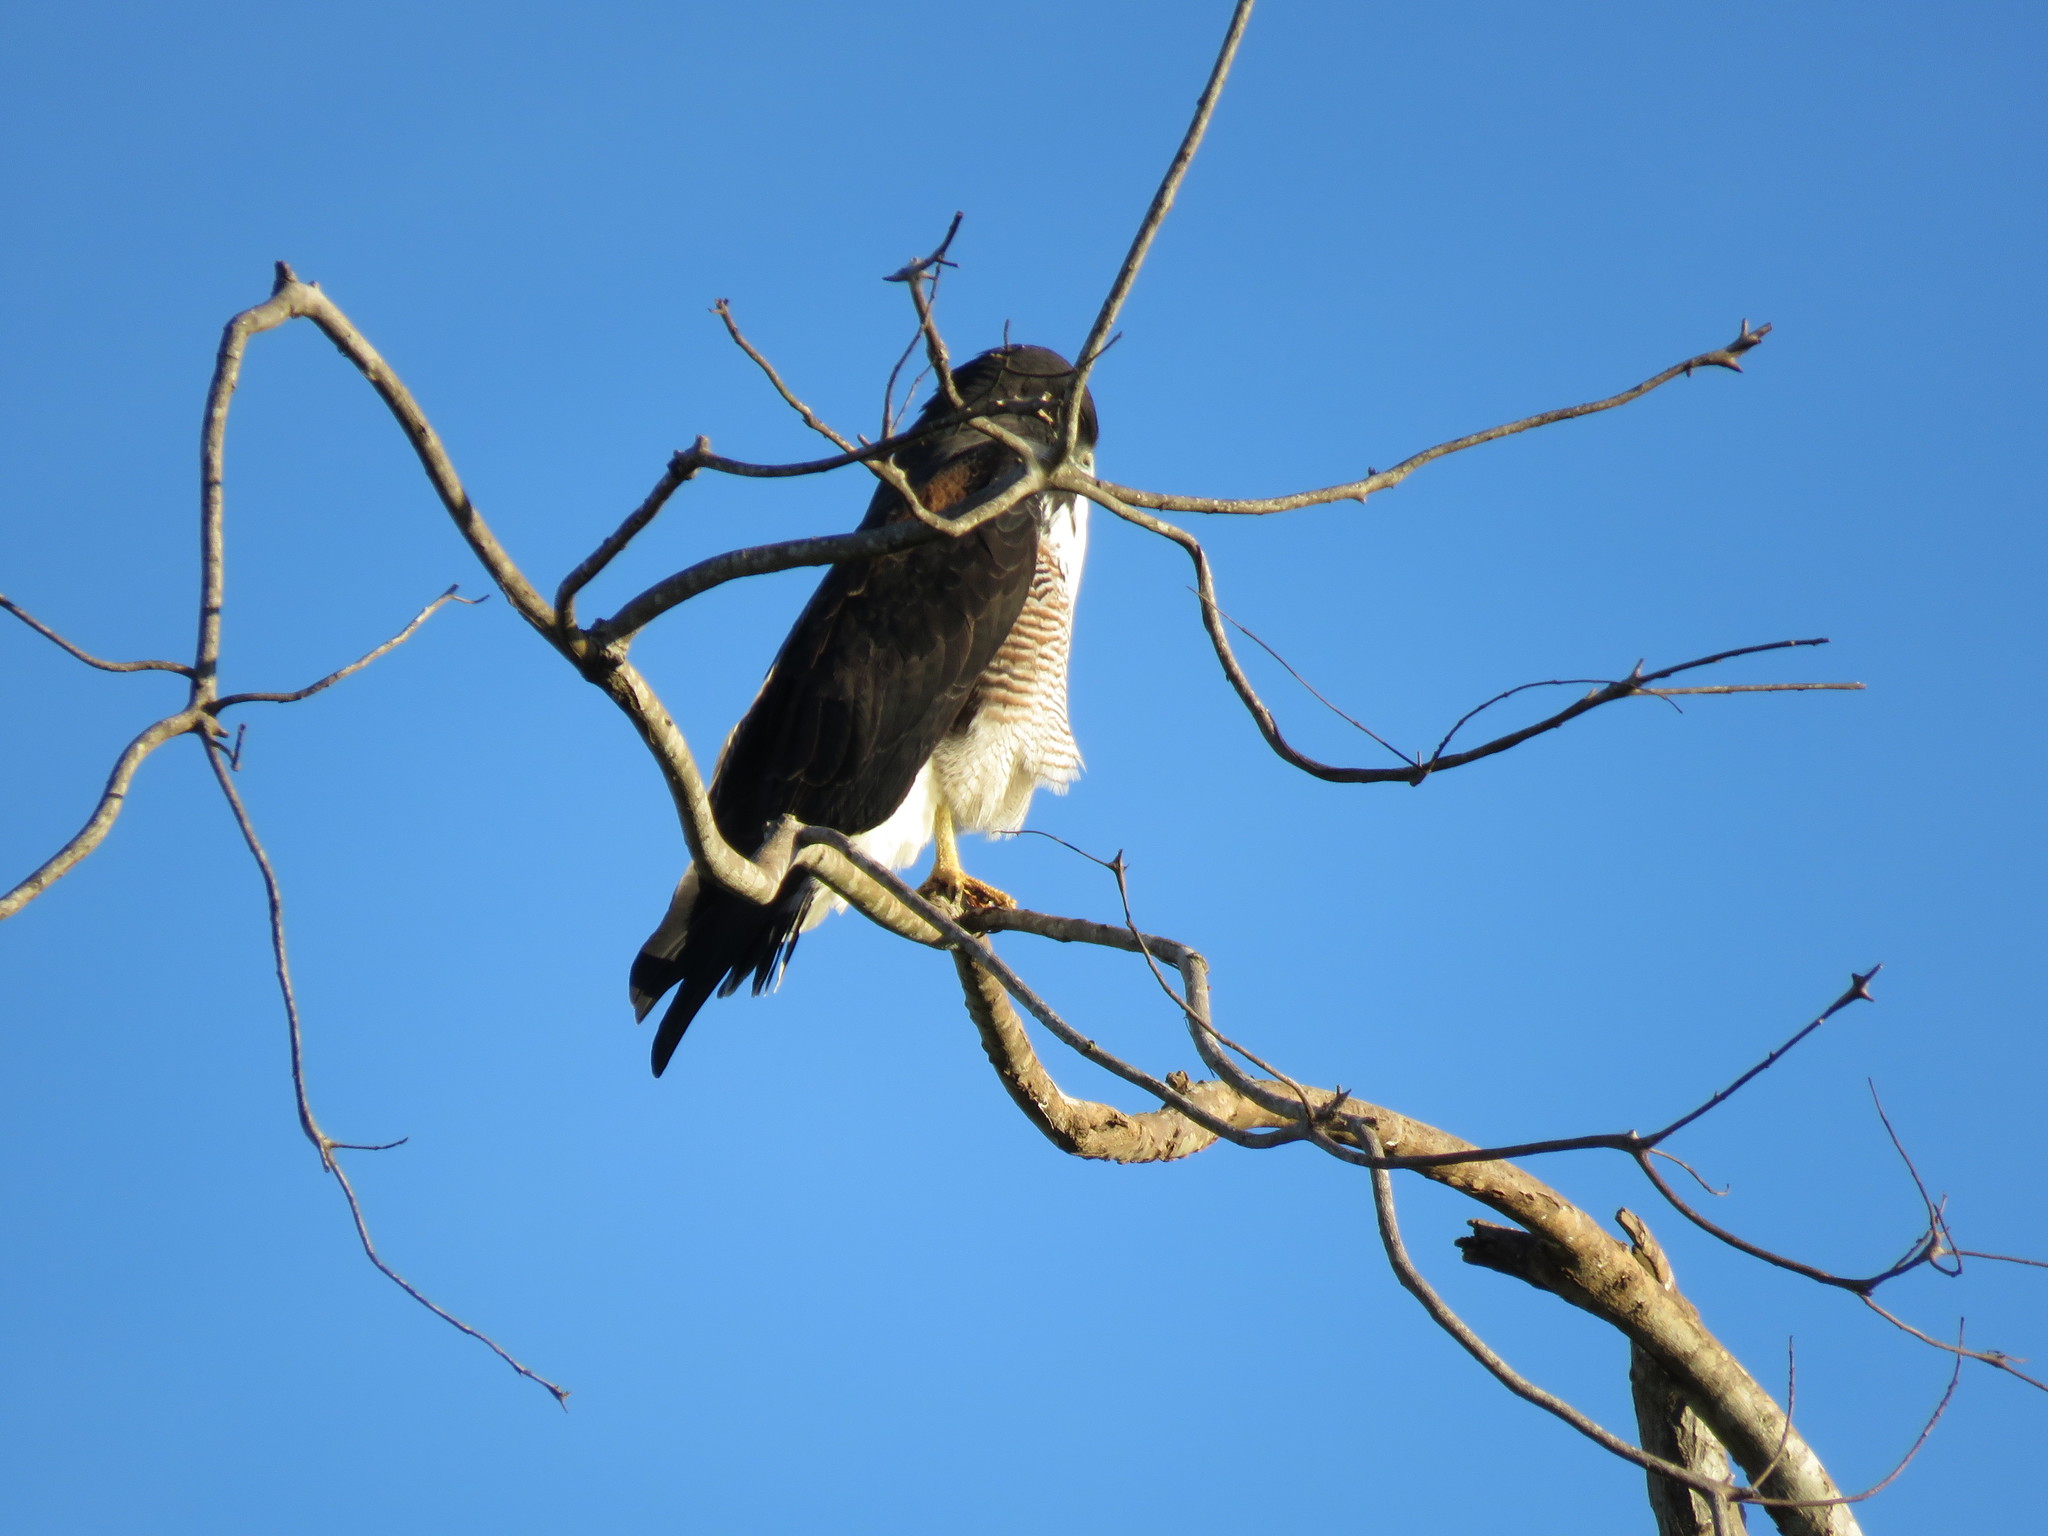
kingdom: Animalia
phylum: Chordata
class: Aves
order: Accipitriformes
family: Accipitridae
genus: Buteo
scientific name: Buteo albicaudatus
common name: White-tailed hawk
